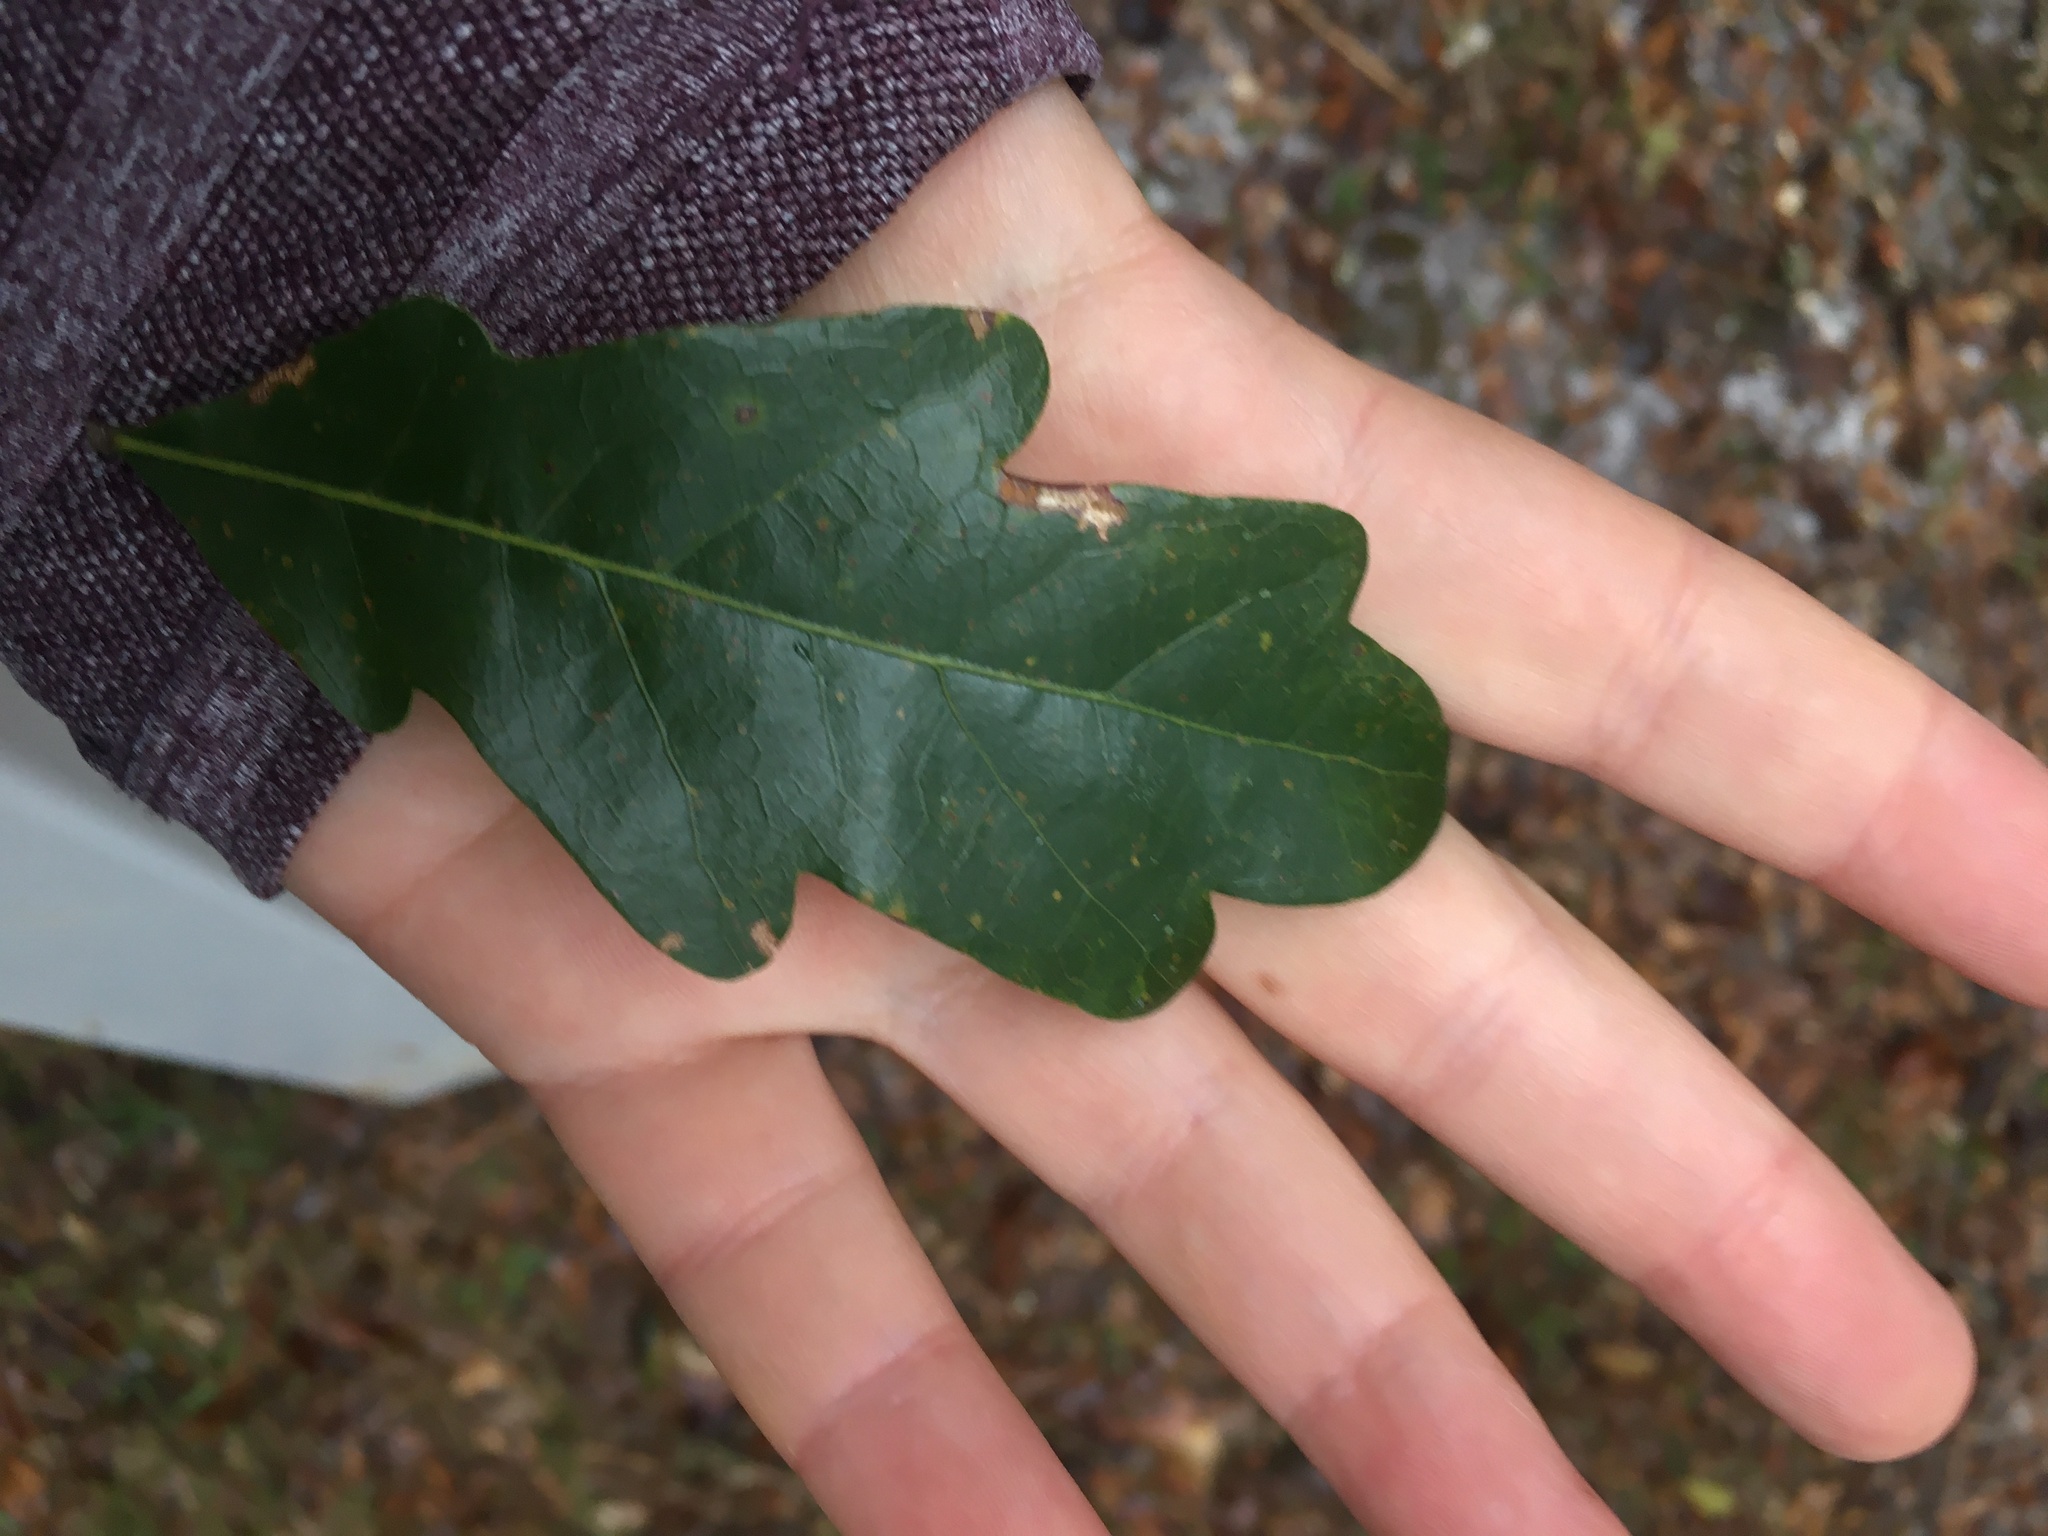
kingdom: Plantae
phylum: Tracheophyta
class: Magnoliopsida
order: Fagales
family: Fagaceae
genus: Quercus
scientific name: Quercus austrina
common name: Bastard white oak
